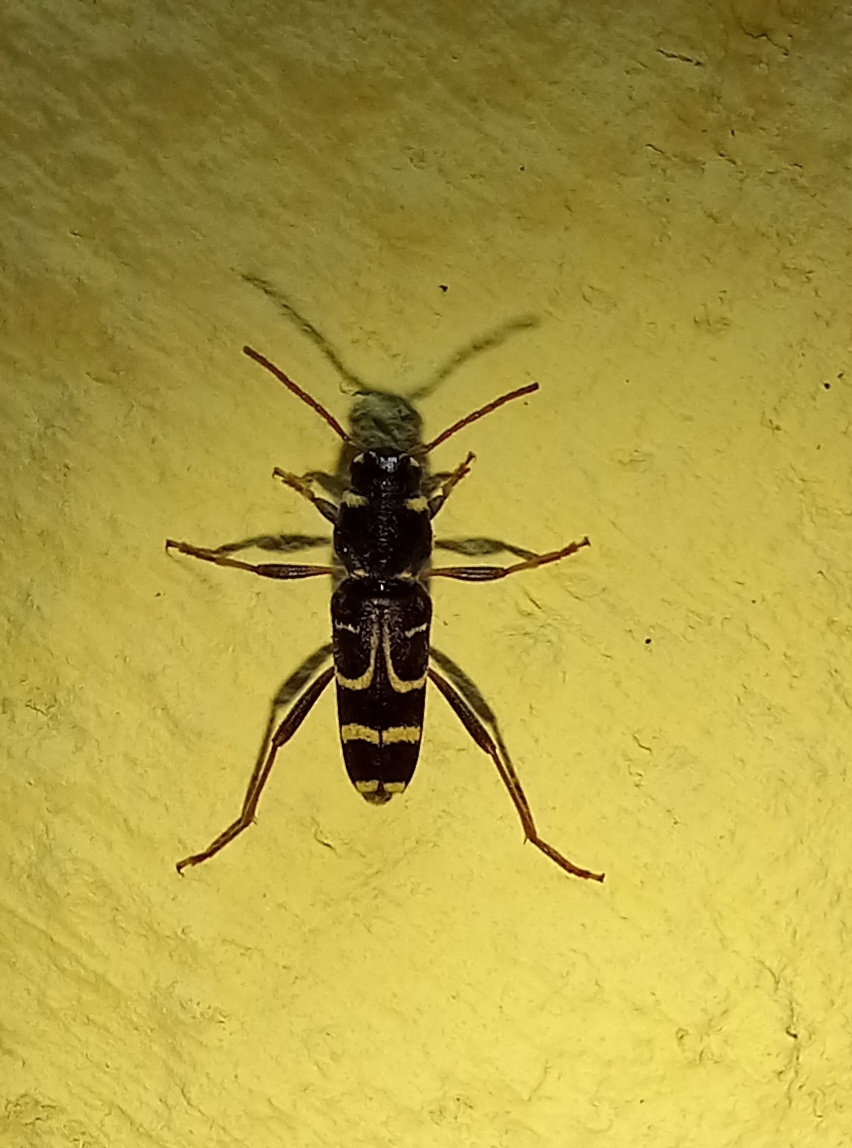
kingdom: Animalia
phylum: Arthropoda
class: Insecta
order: Coleoptera
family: Cerambycidae
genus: Xylotrechus
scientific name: Xylotrechus arvicola
